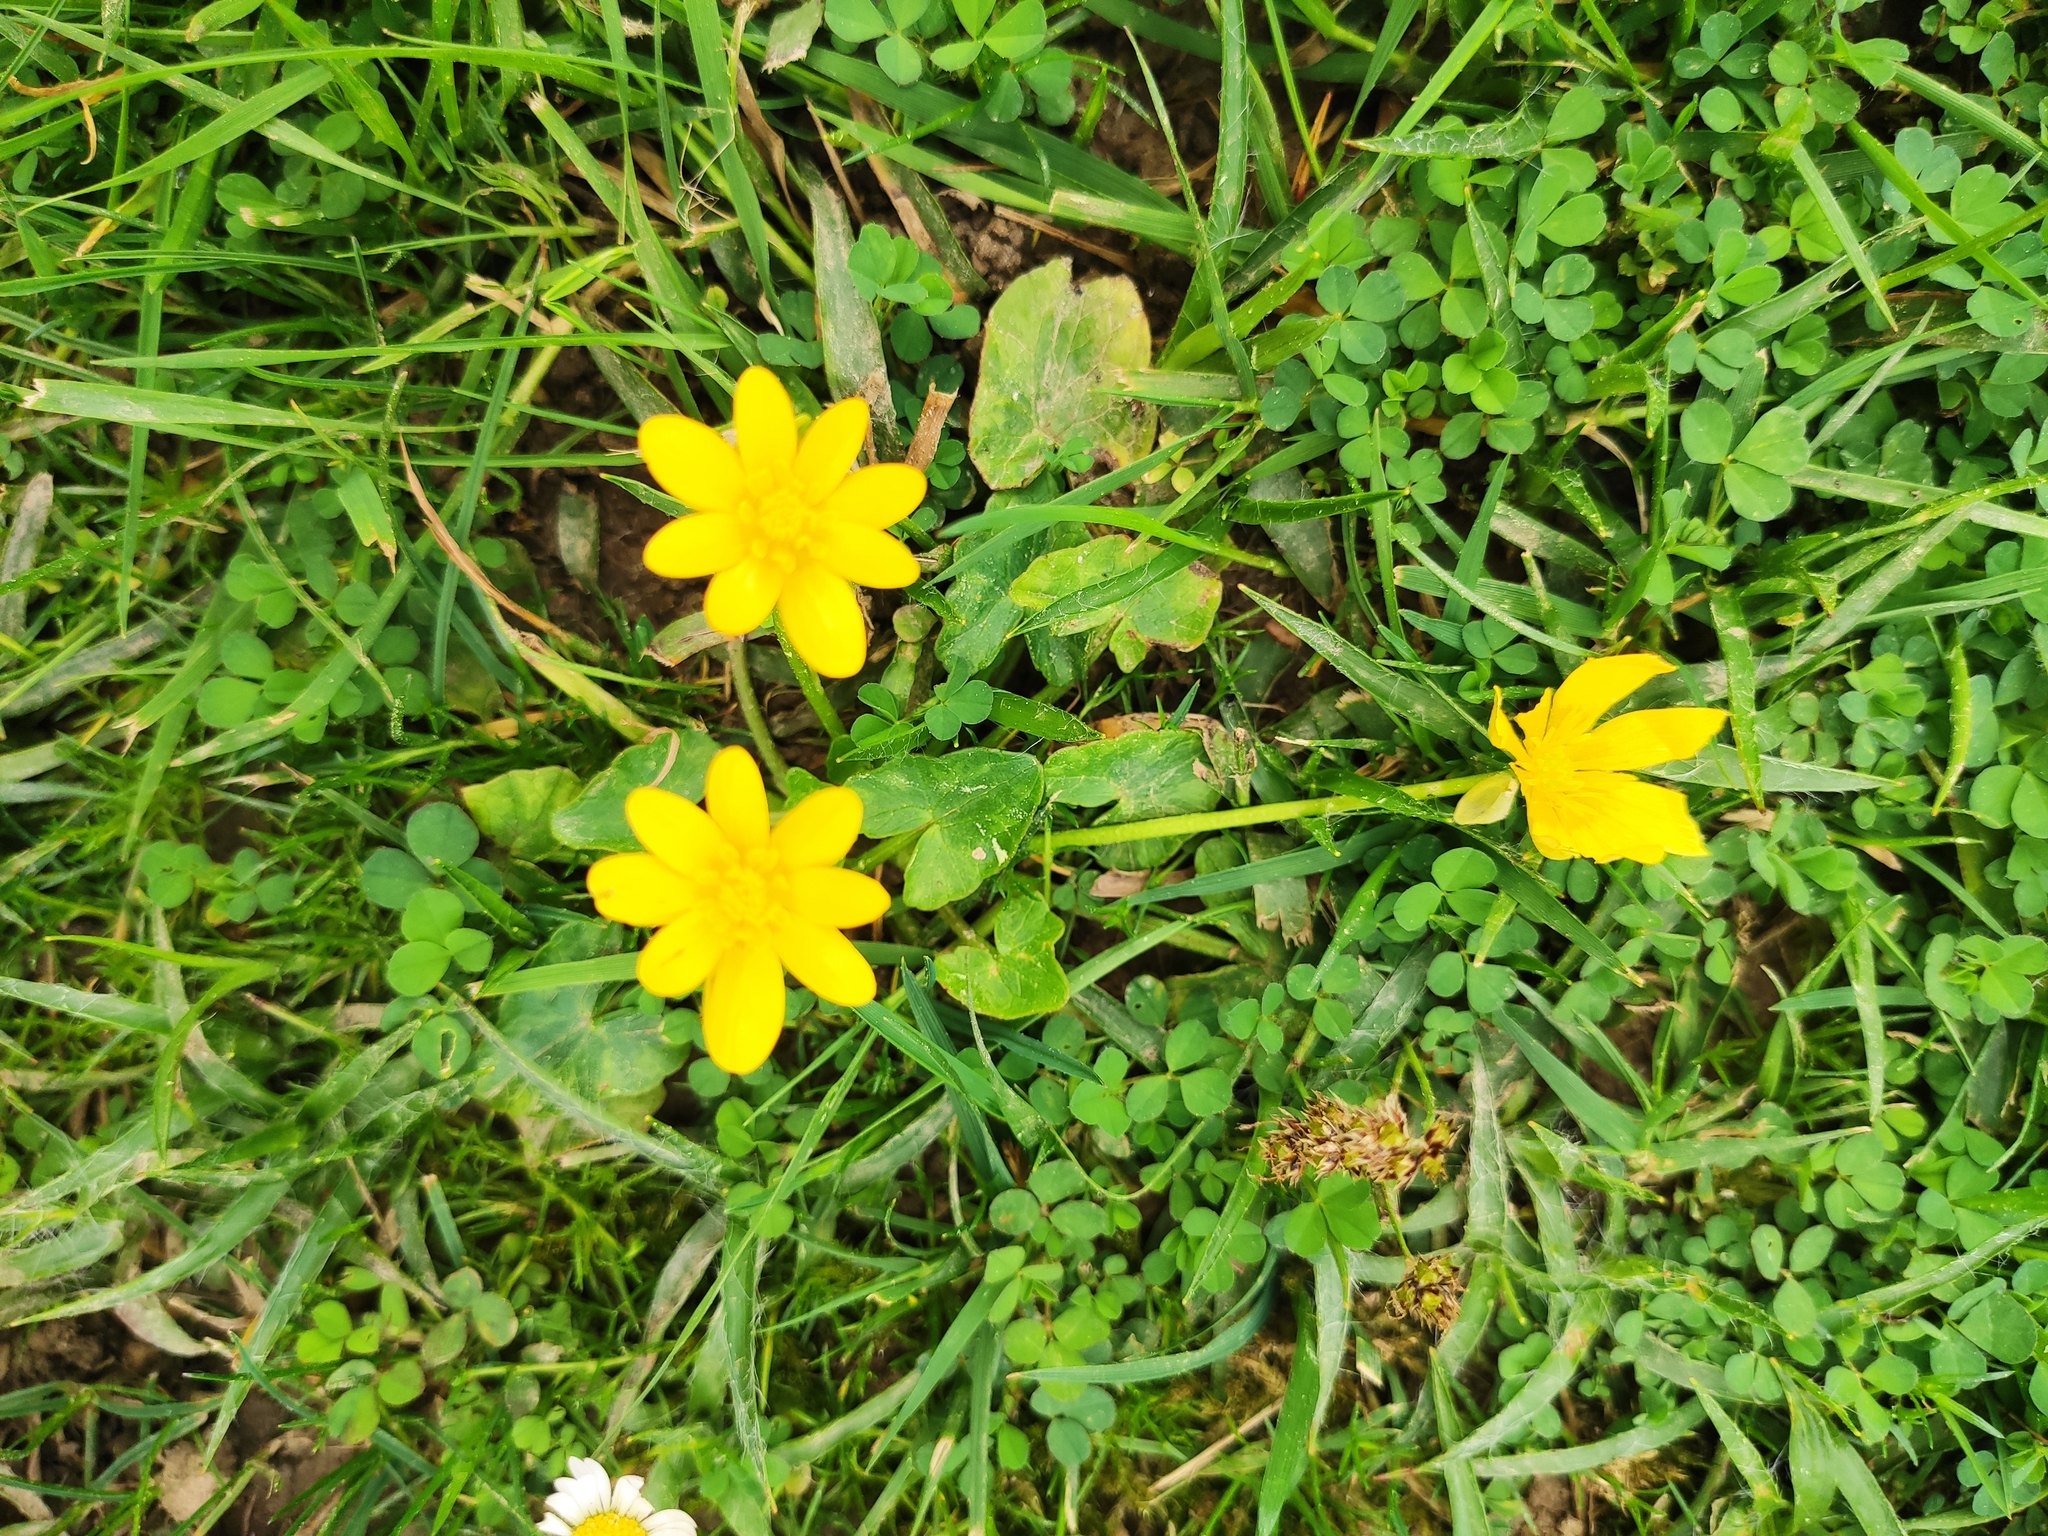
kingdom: Plantae
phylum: Tracheophyta
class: Magnoliopsida
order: Ranunculales
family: Ranunculaceae
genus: Ficaria
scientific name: Ficaria verna
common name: Lesser celandine
